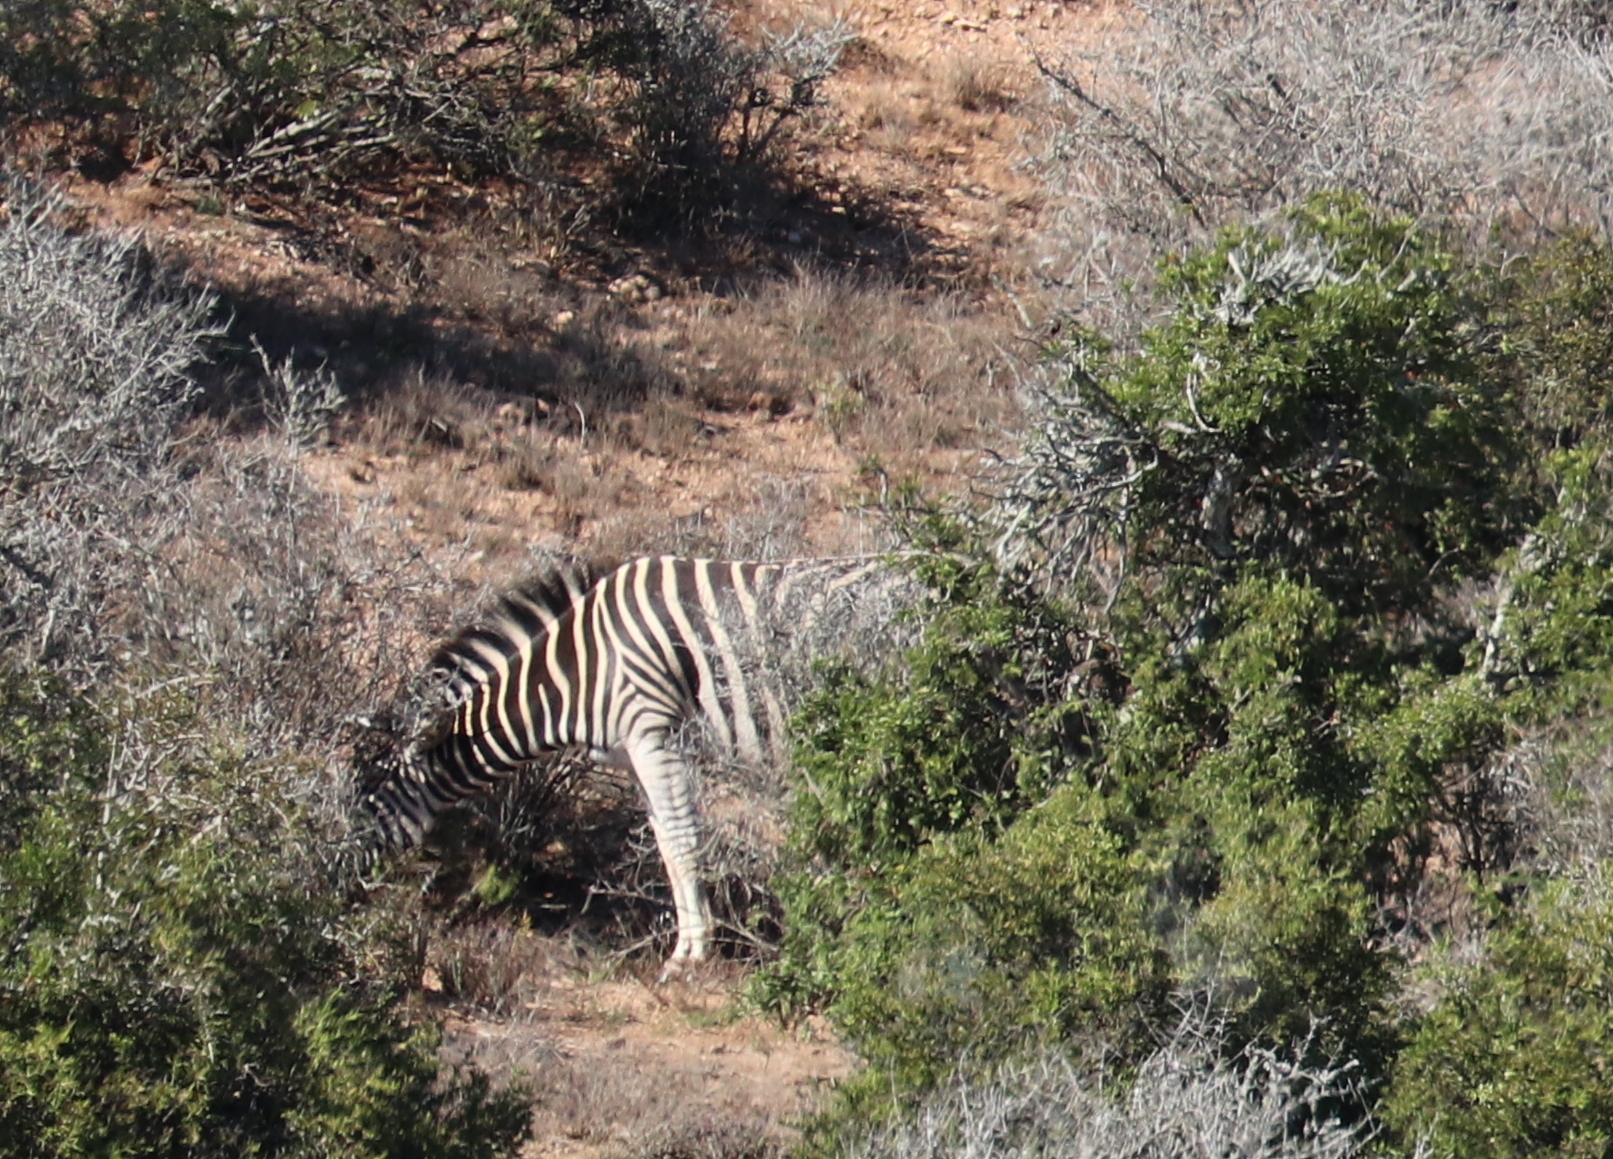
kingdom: Animalia
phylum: Chordata
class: Mammalia
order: Perissodactyla
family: Equidae
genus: Equus
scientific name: Equus quagga
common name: Plains zebra
